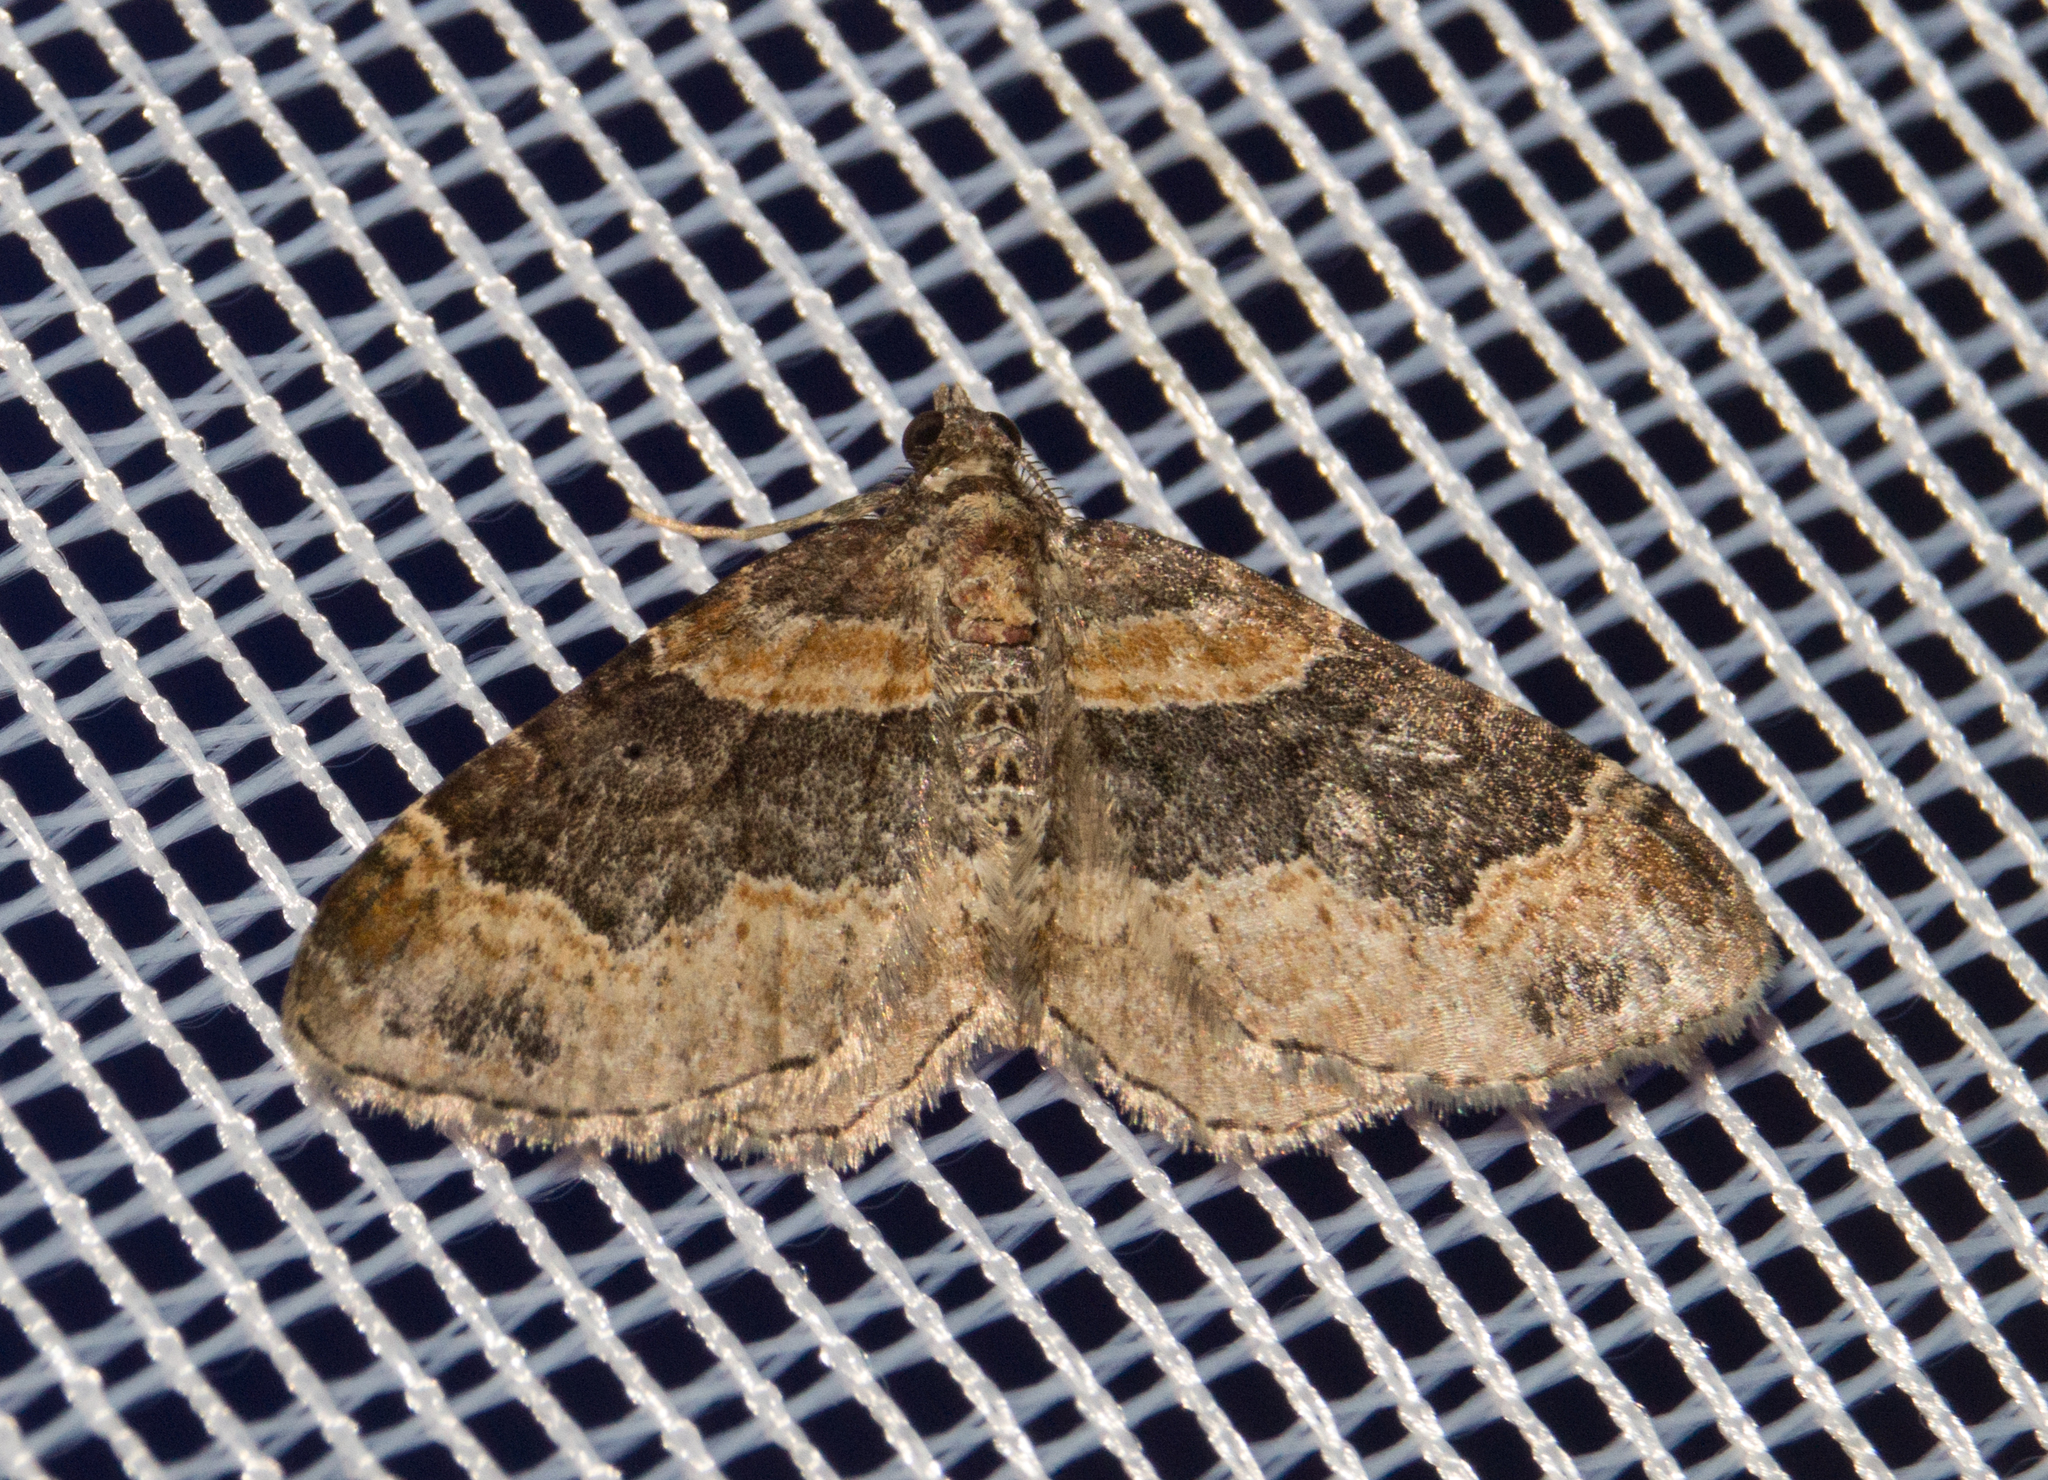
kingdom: Animalia
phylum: Arthropoda
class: Insecta
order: Lepidoptera
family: Geometridae
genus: Xanthorhoe
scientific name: Xanthorhoe ferrugata
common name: Dark-barred twin-spot carpet
